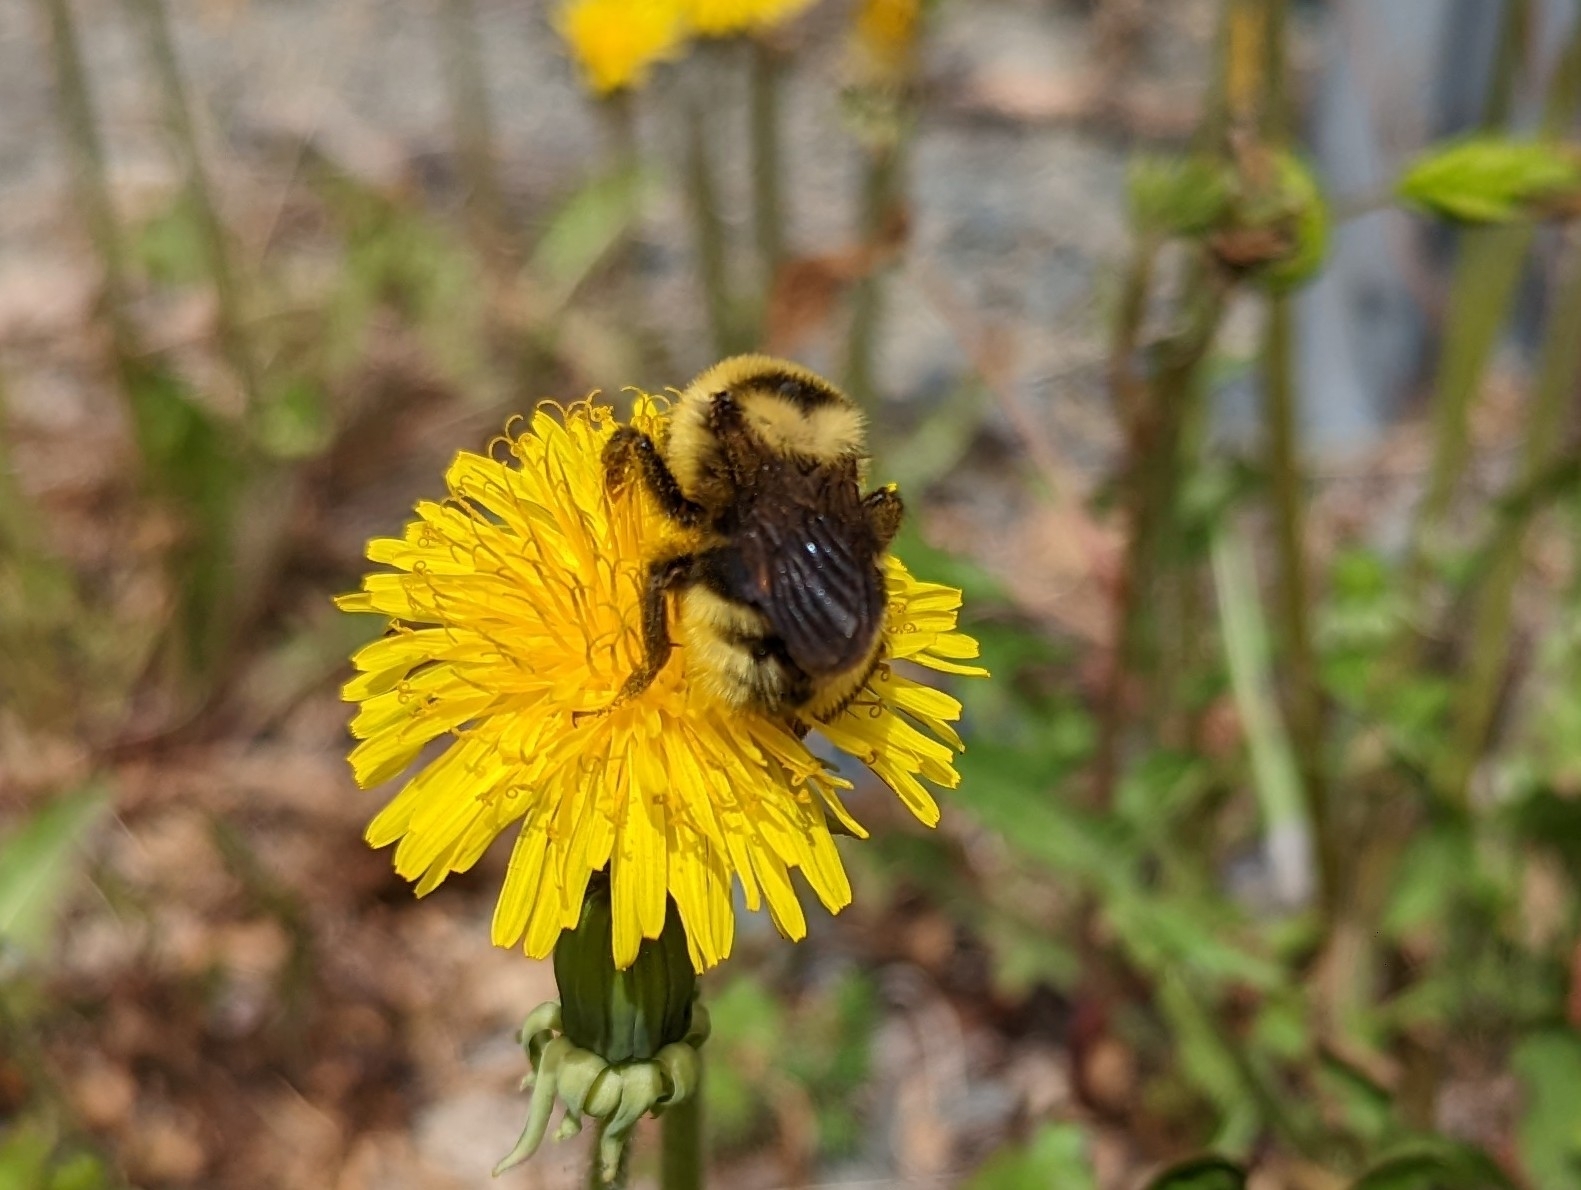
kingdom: Animalia
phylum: Arthropoda
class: Insecta
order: Hymenoptera
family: Apidae
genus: Bombus
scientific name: Bombus insularis
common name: Indiscriminate cuckoo bumble bee
